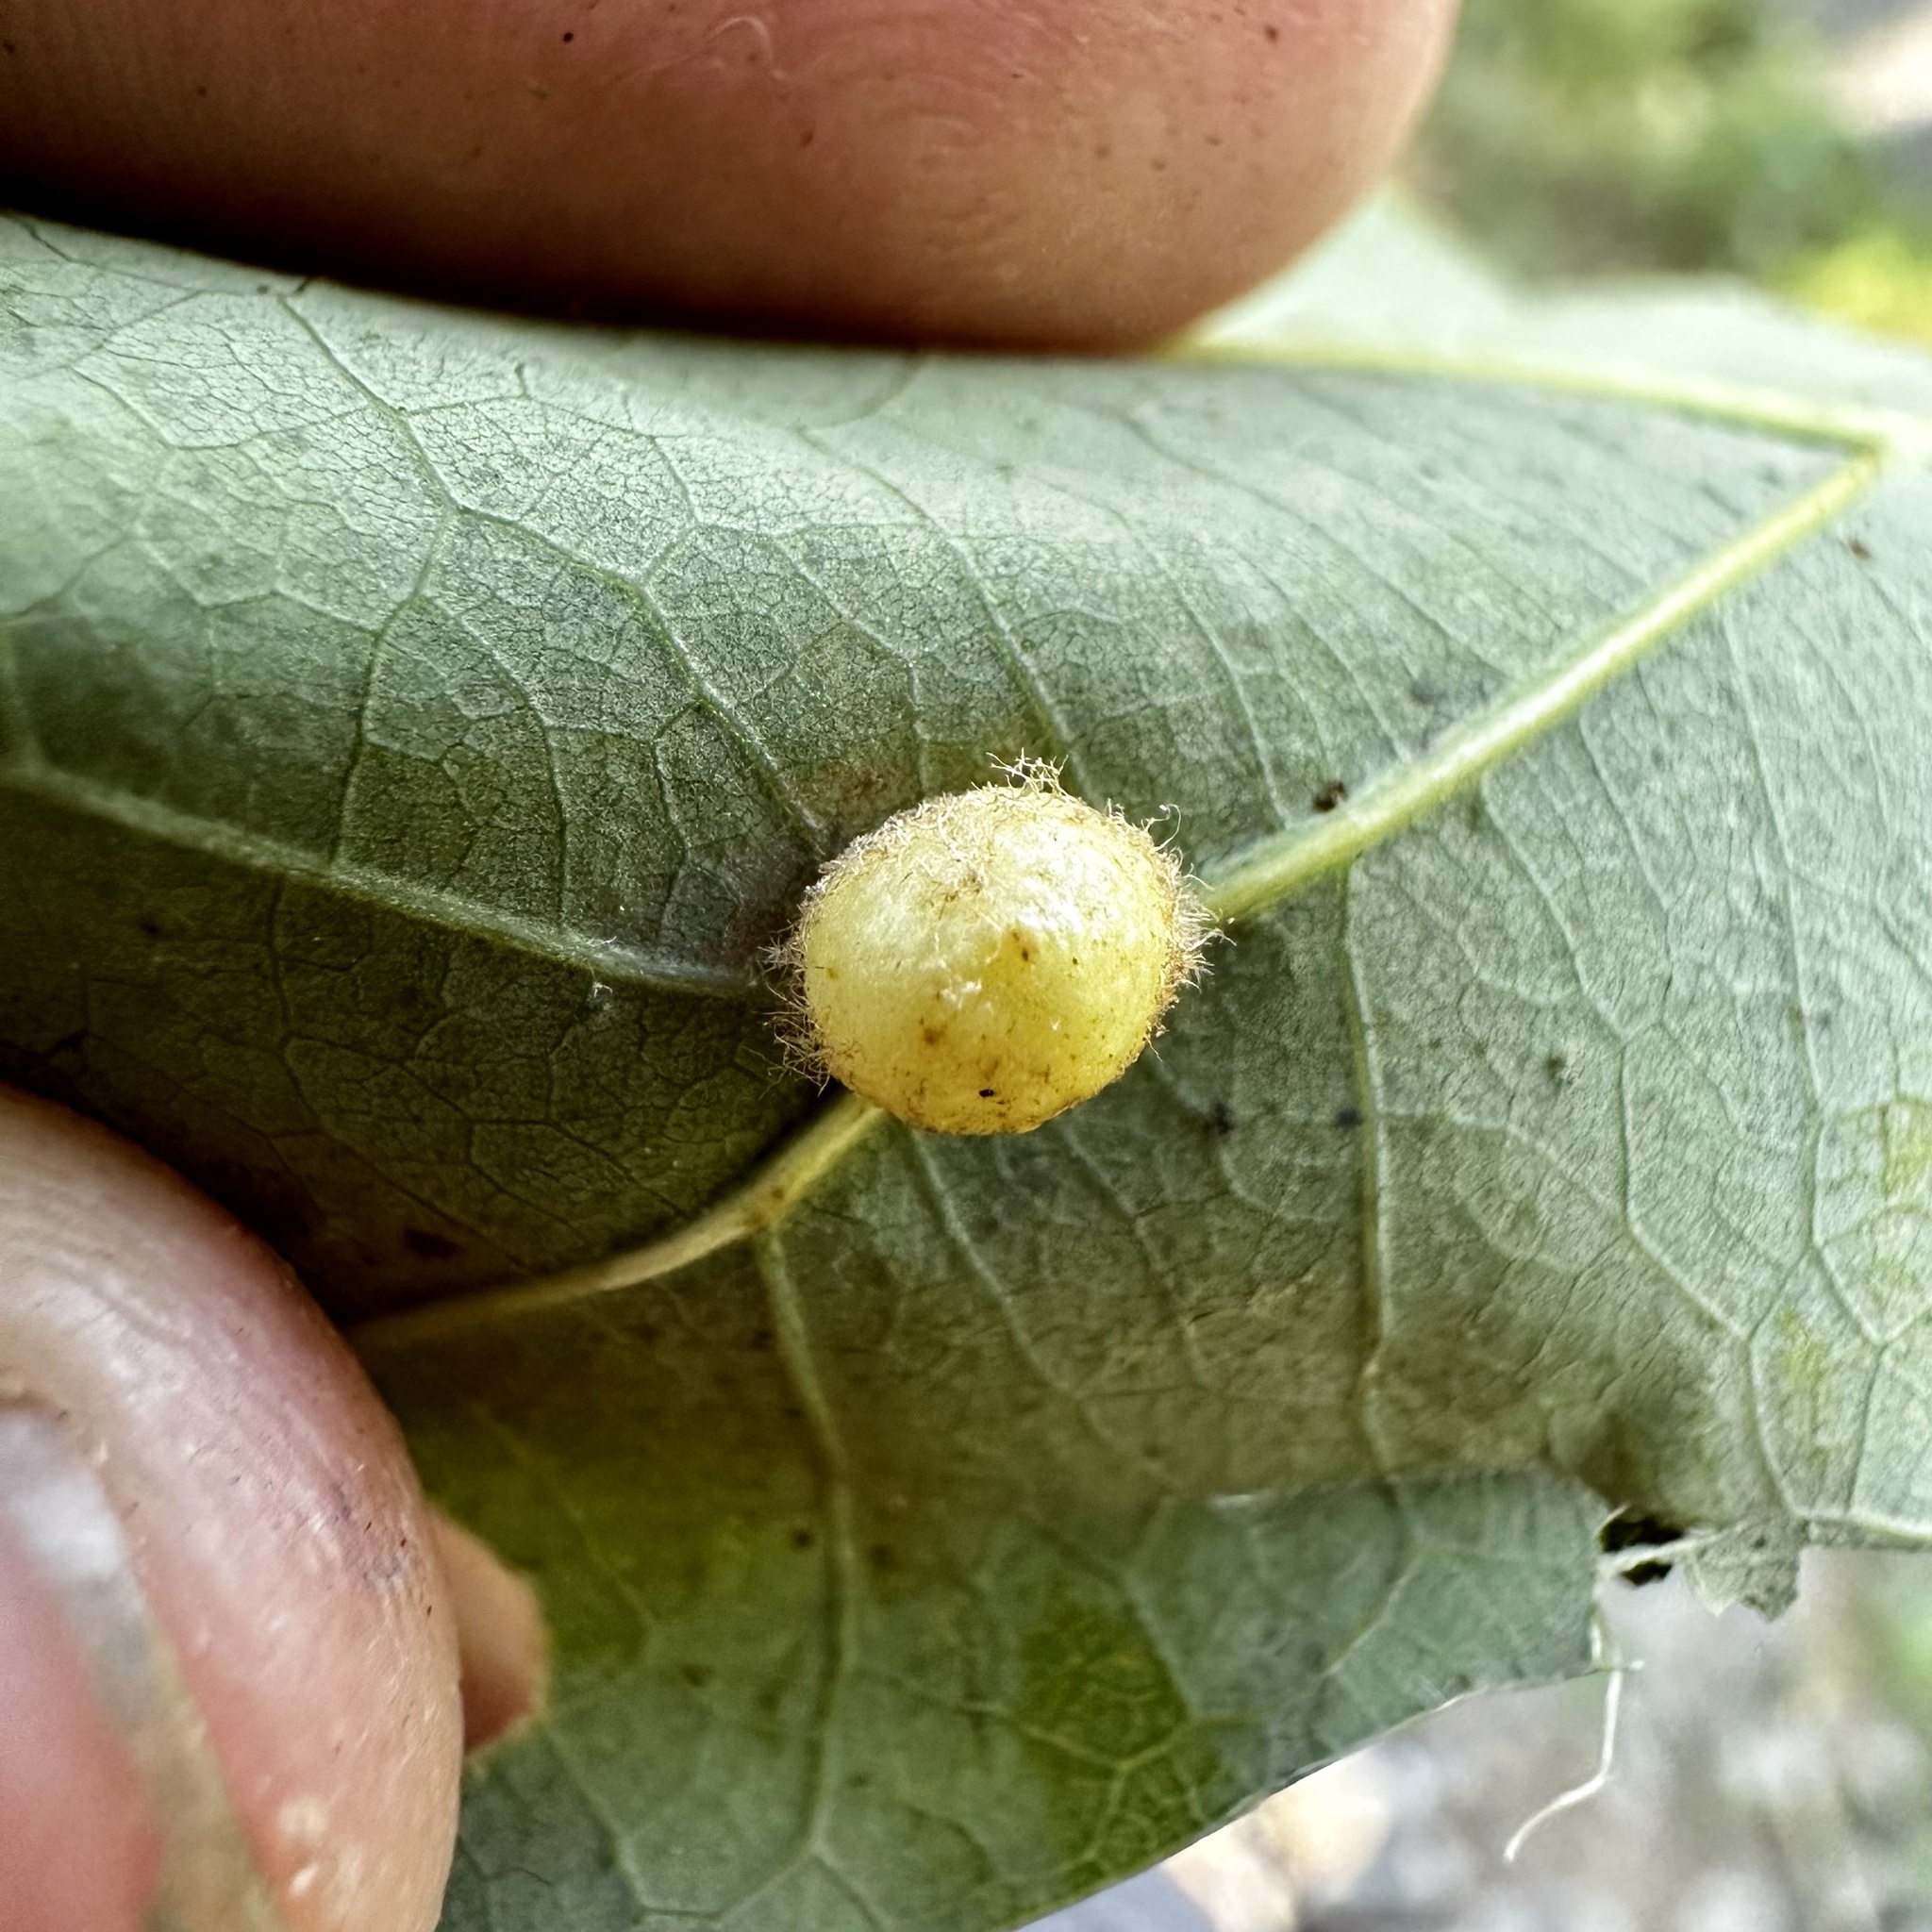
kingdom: Animalia
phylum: Arthropoda
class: Insecta
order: Hymenoptera
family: Cynipidae
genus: Philonix
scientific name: Philonix fulvicollis
